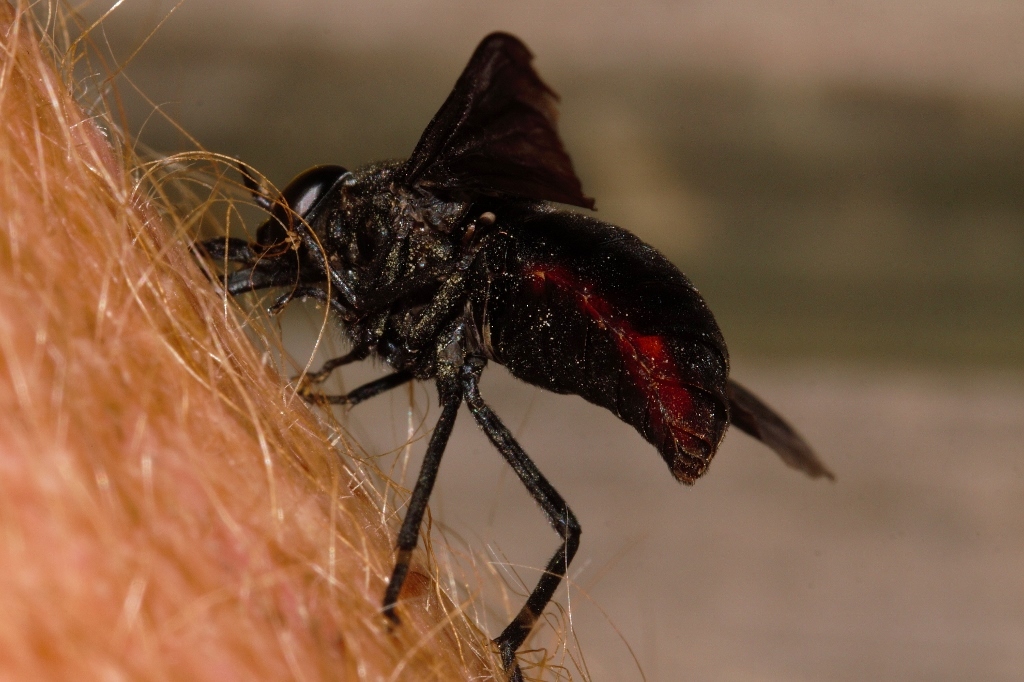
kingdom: Animalia
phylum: Arthropoda
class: Insecta
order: Diptera
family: Tabanidae
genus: Philoliche
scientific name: Philoliche rubramarginata
